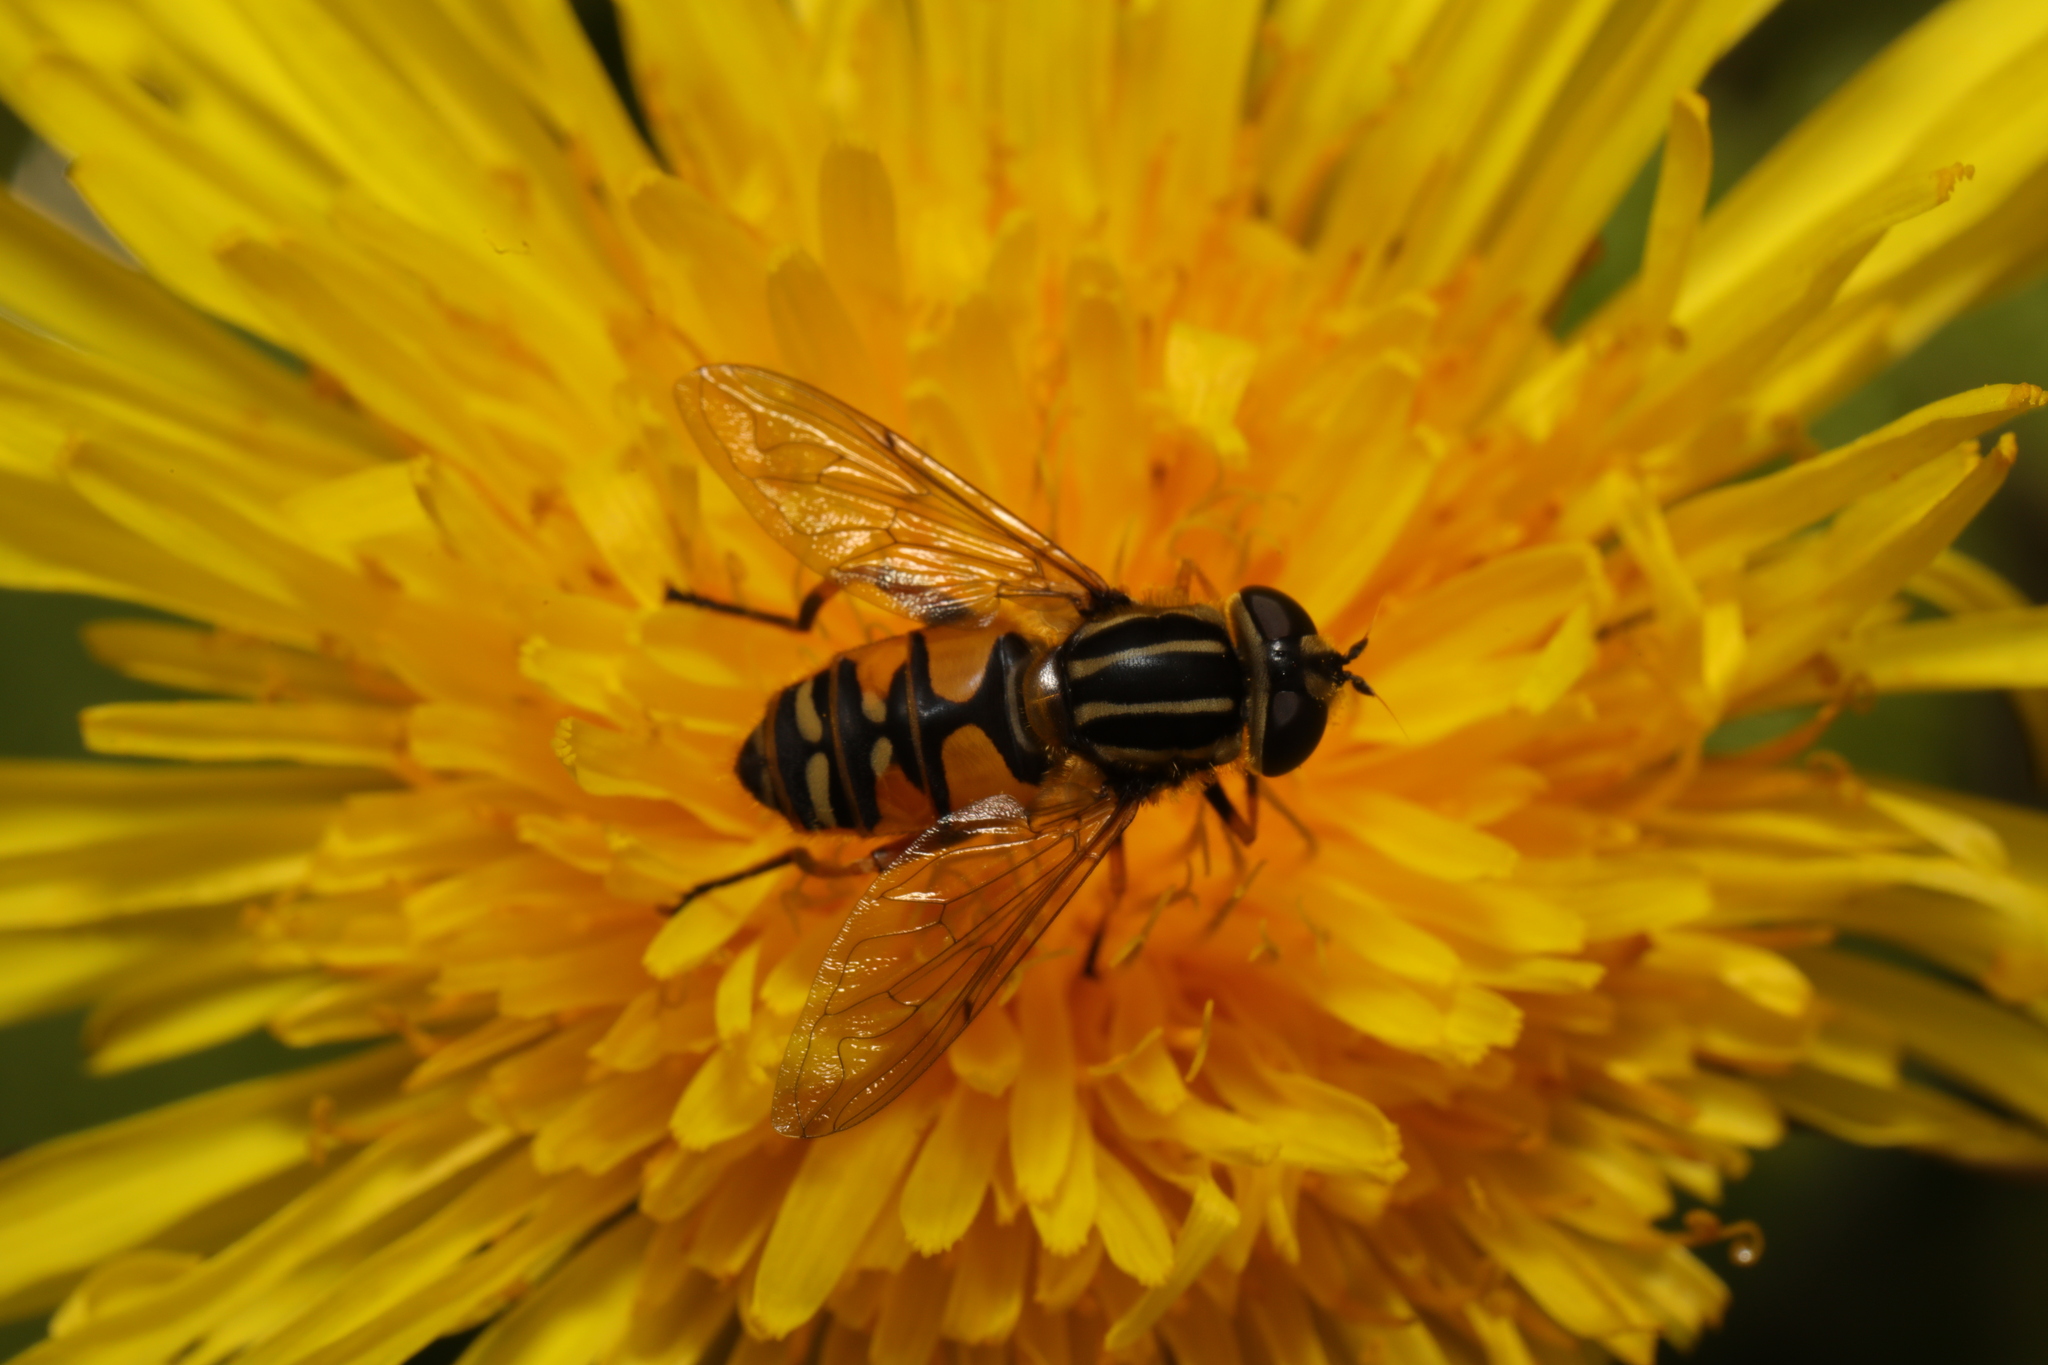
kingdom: Animalia
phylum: Arthropoda
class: Insecta
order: Diptera
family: Syrphidae
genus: Helophilus
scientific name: Helophilus pendulus
